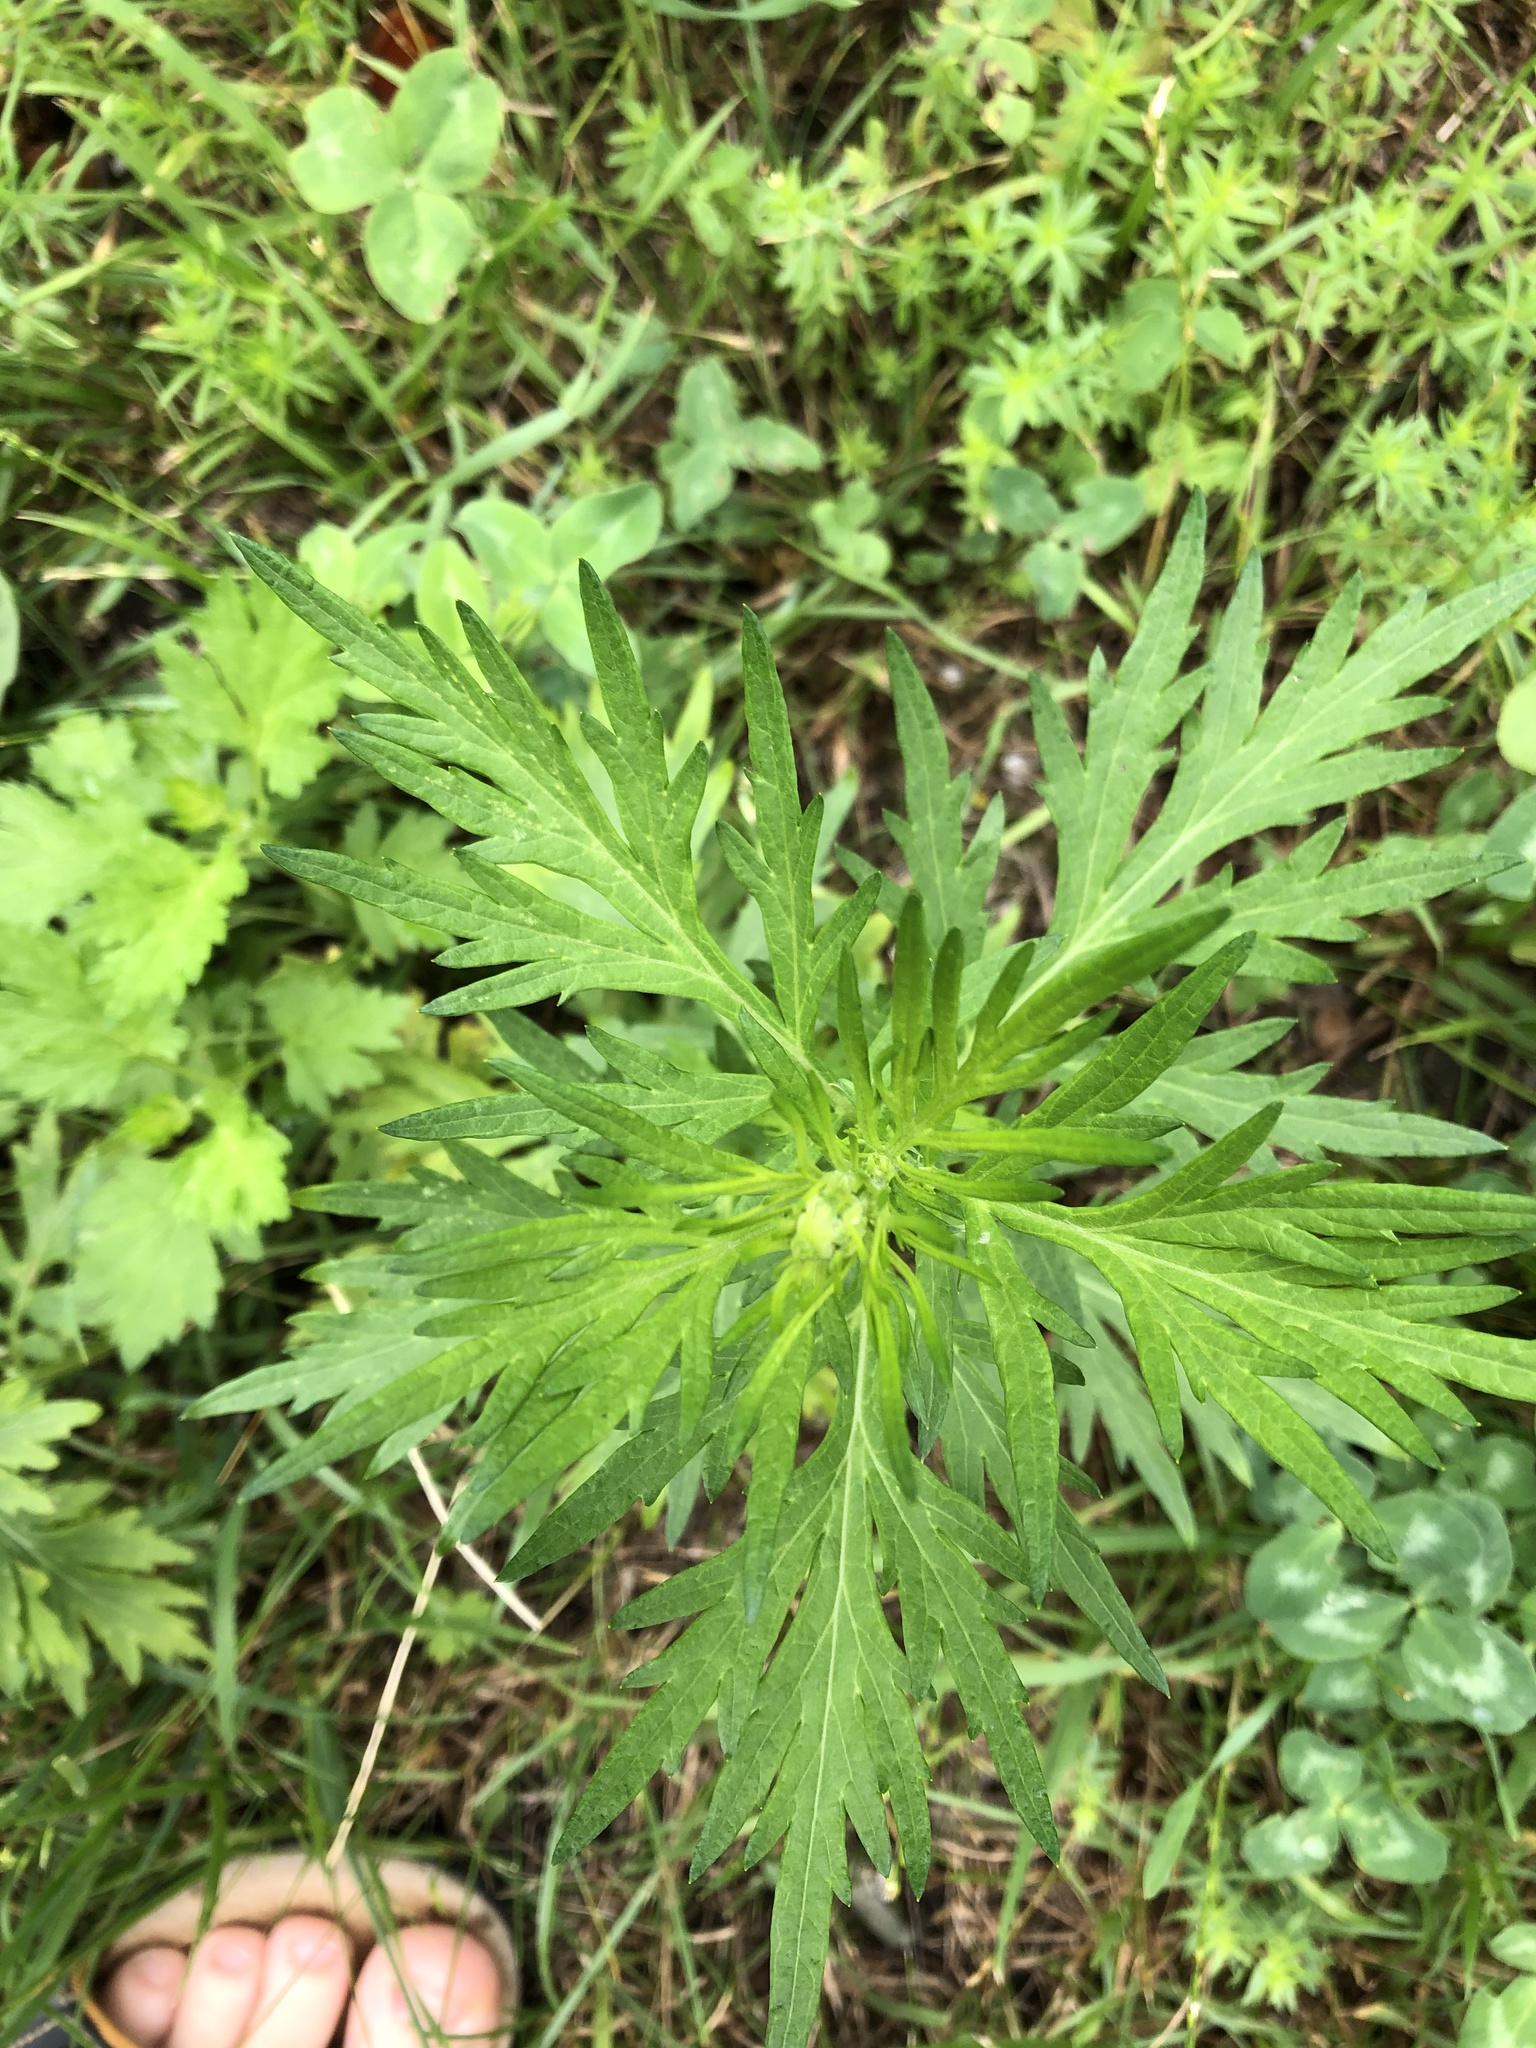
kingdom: Plantae
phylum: Tracheophyta
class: Magnoliopsida
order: Asterales
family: Asteraceae
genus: Artemisia
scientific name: Artemisia vulgaris
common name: Mugwort
